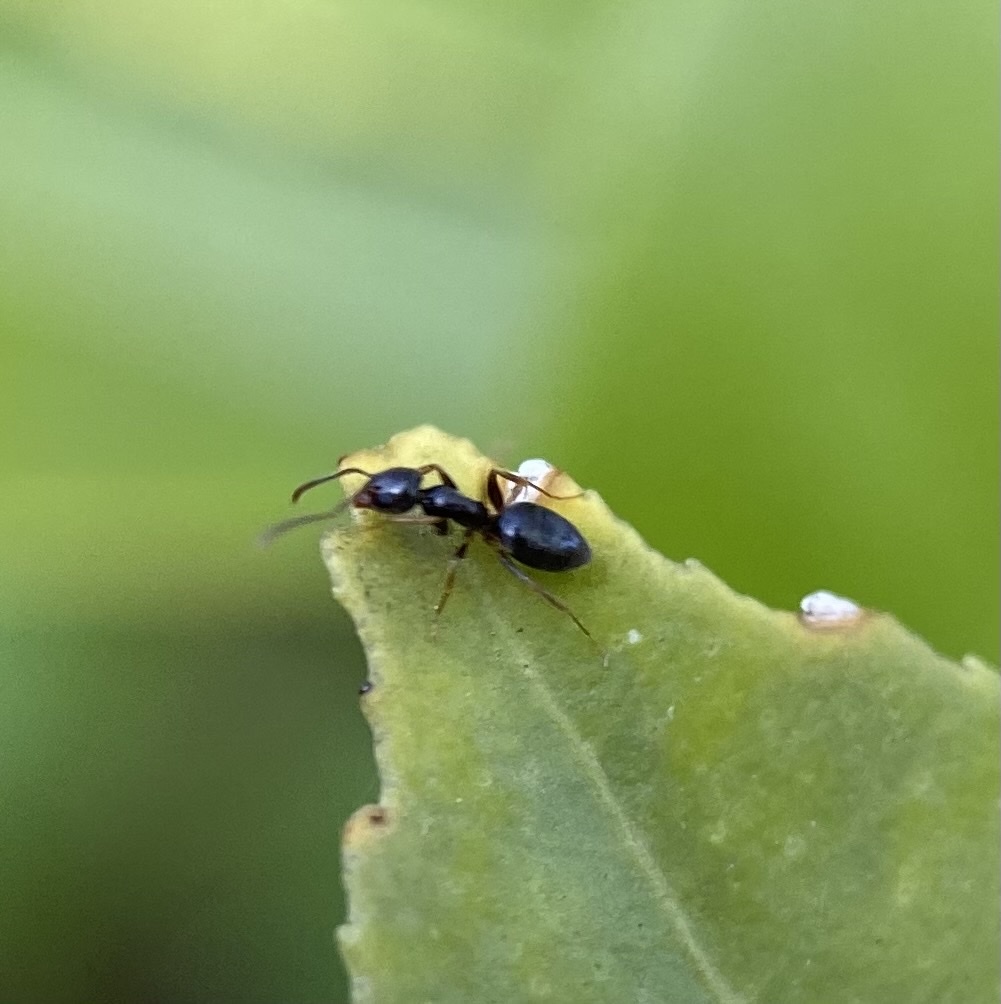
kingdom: Animalia
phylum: Arthropoda
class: Insecta
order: Hymenoptera
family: Formicidae
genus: Tapinoma
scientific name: Tapinoma sessile
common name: Odorous house ant
